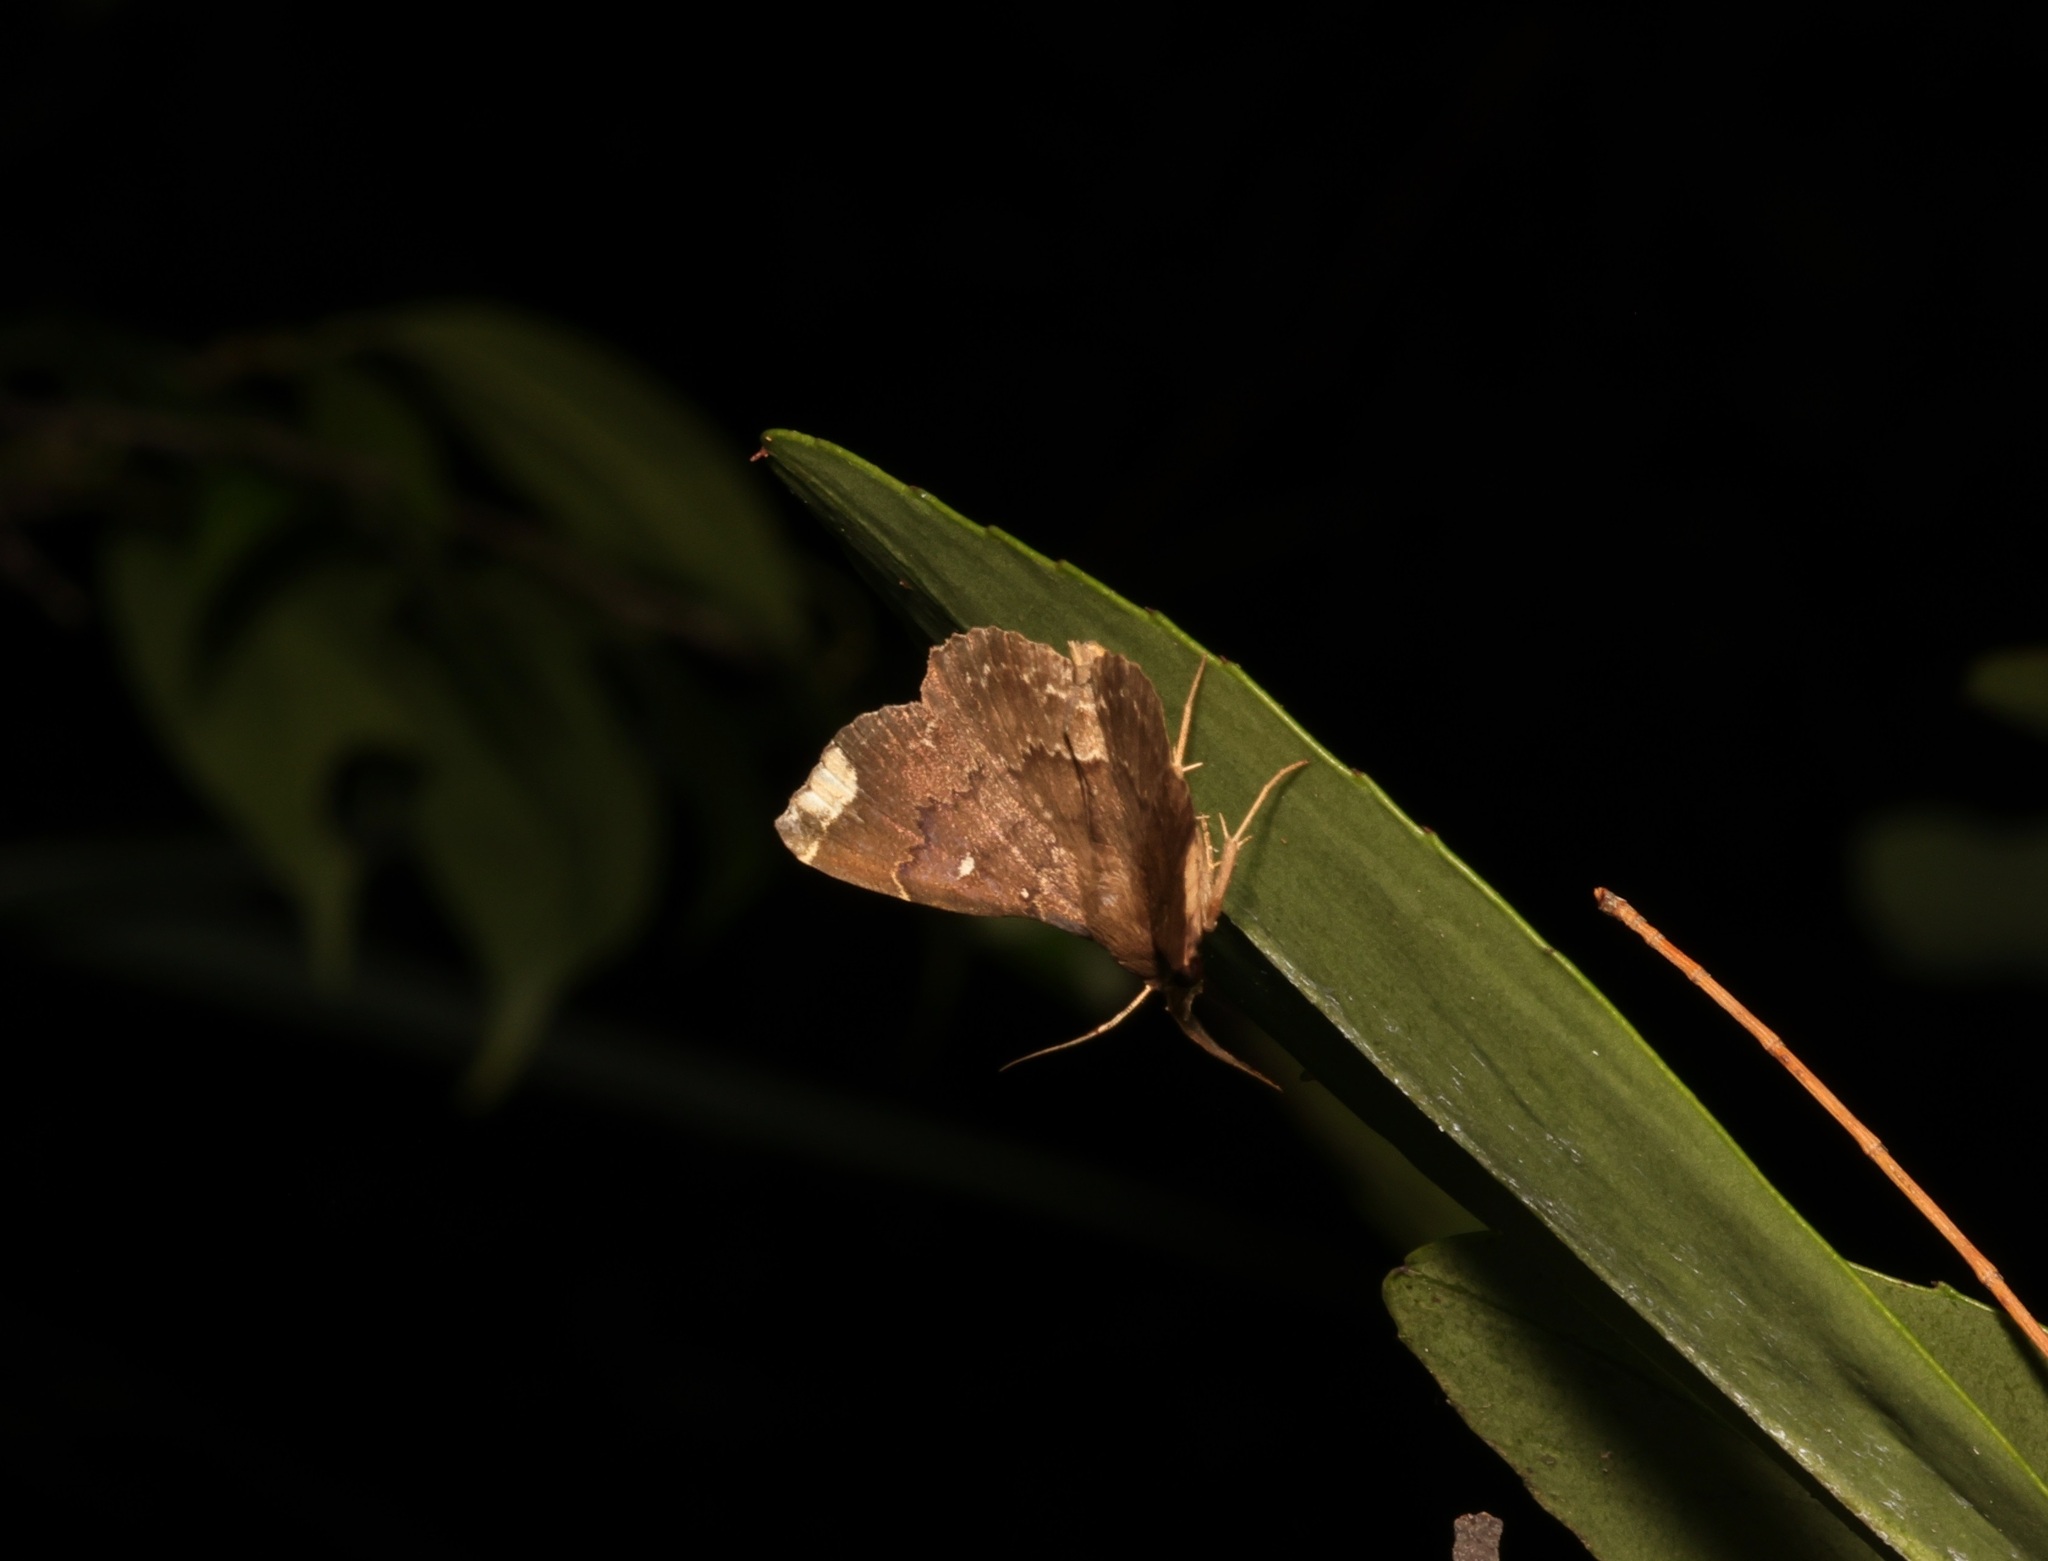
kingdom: Animalia
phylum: Arthropoda
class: Insecta
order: Lepidoptera
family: Erebidae
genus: Adrapsa
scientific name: Adrapsa quadrilinealis
